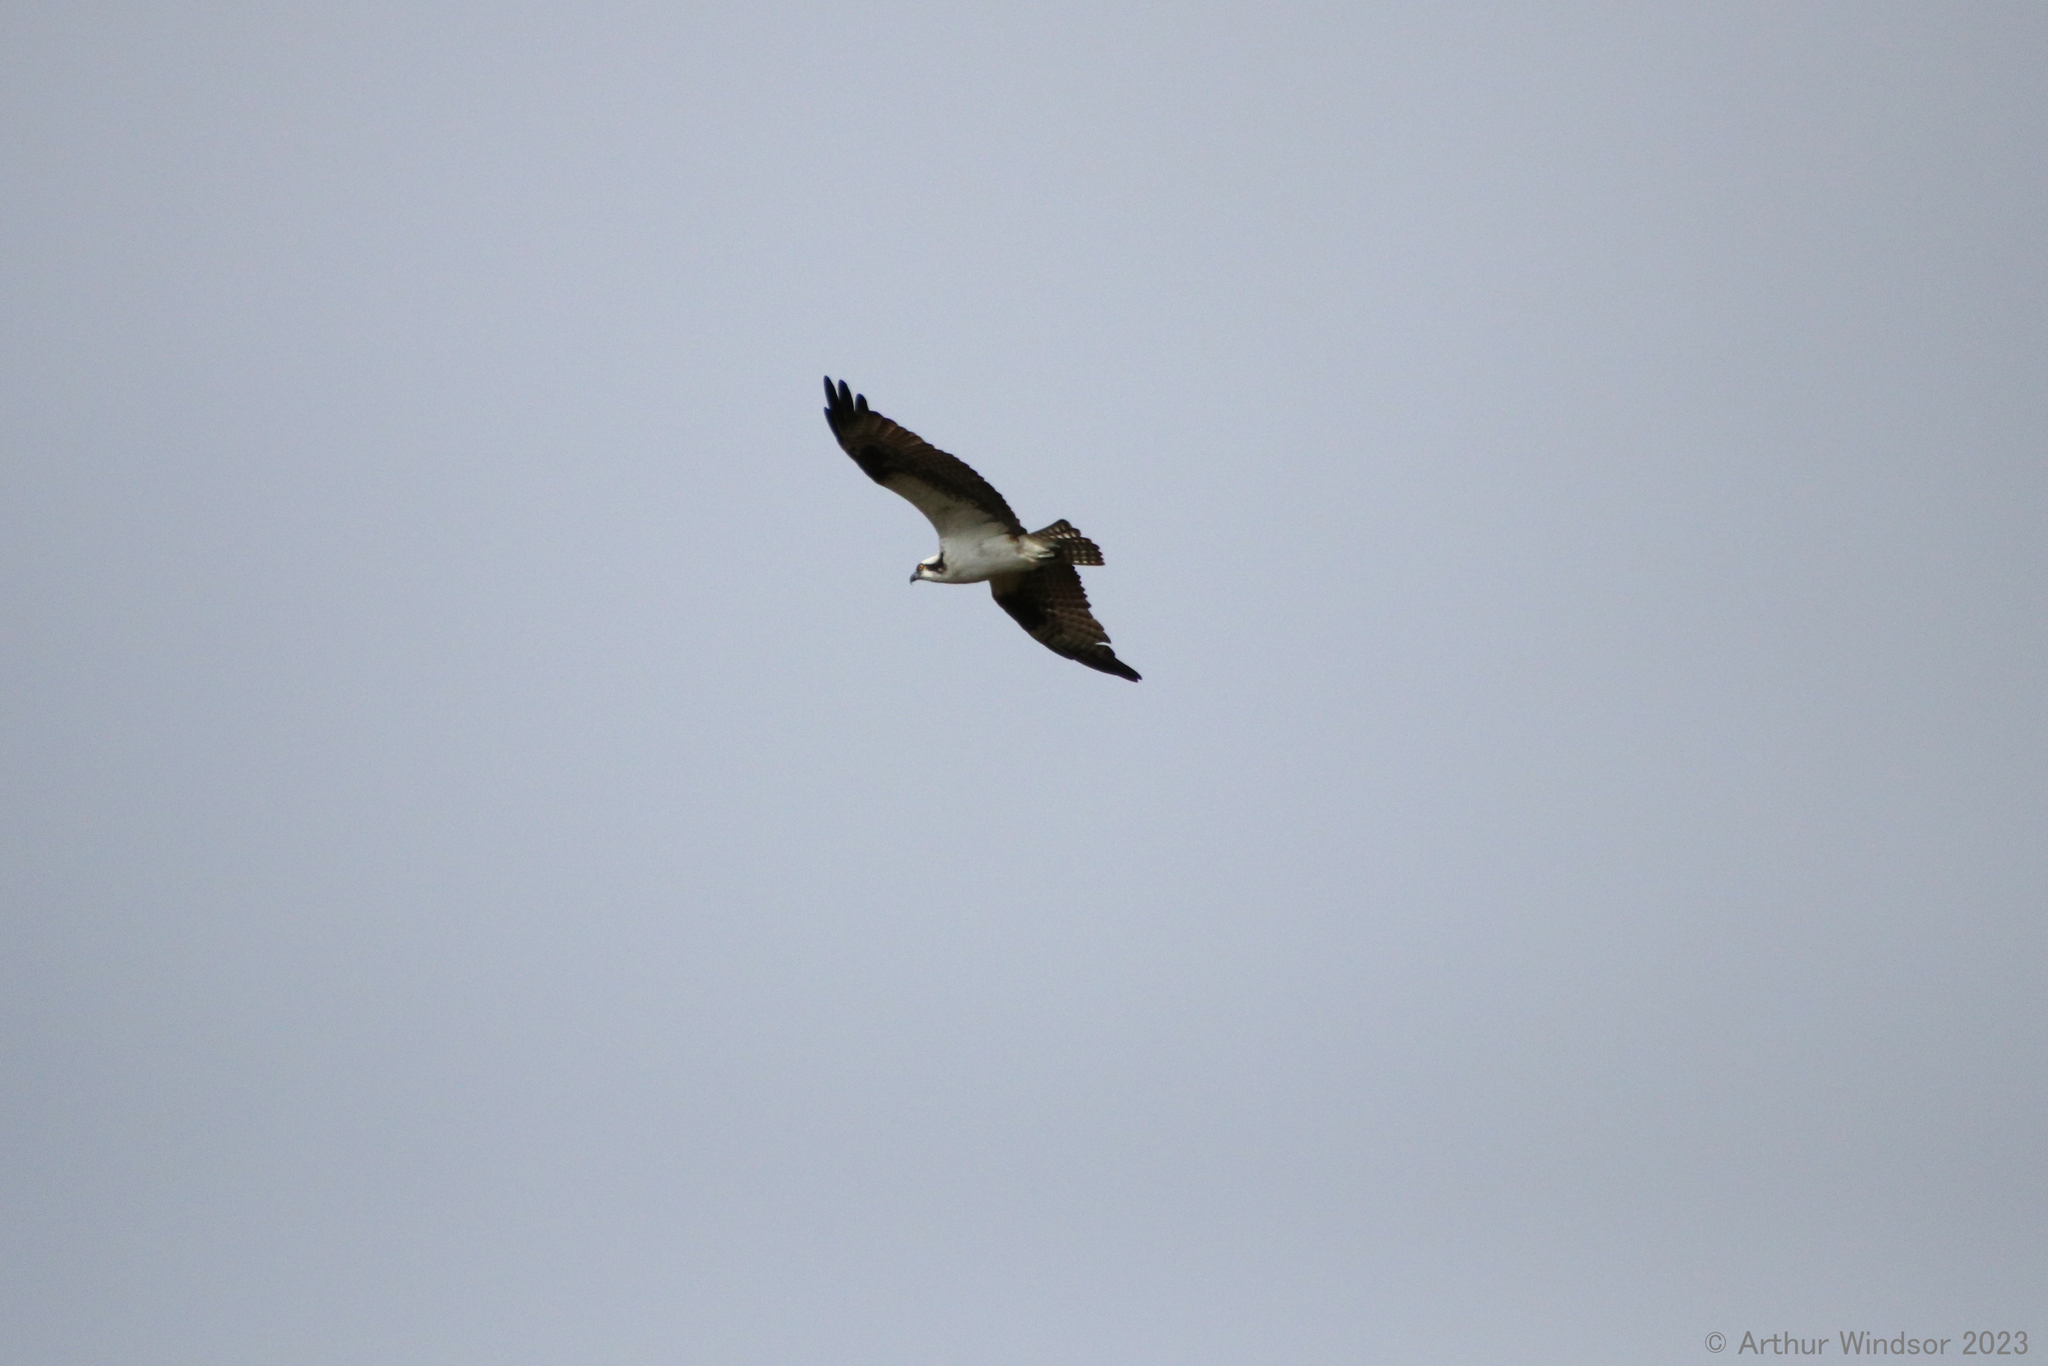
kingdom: Animalia
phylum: Chordata
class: Aves
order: Accipitriformes
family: Pandionidae
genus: Pandion
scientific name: Pandion haliaetus
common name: Osprey
